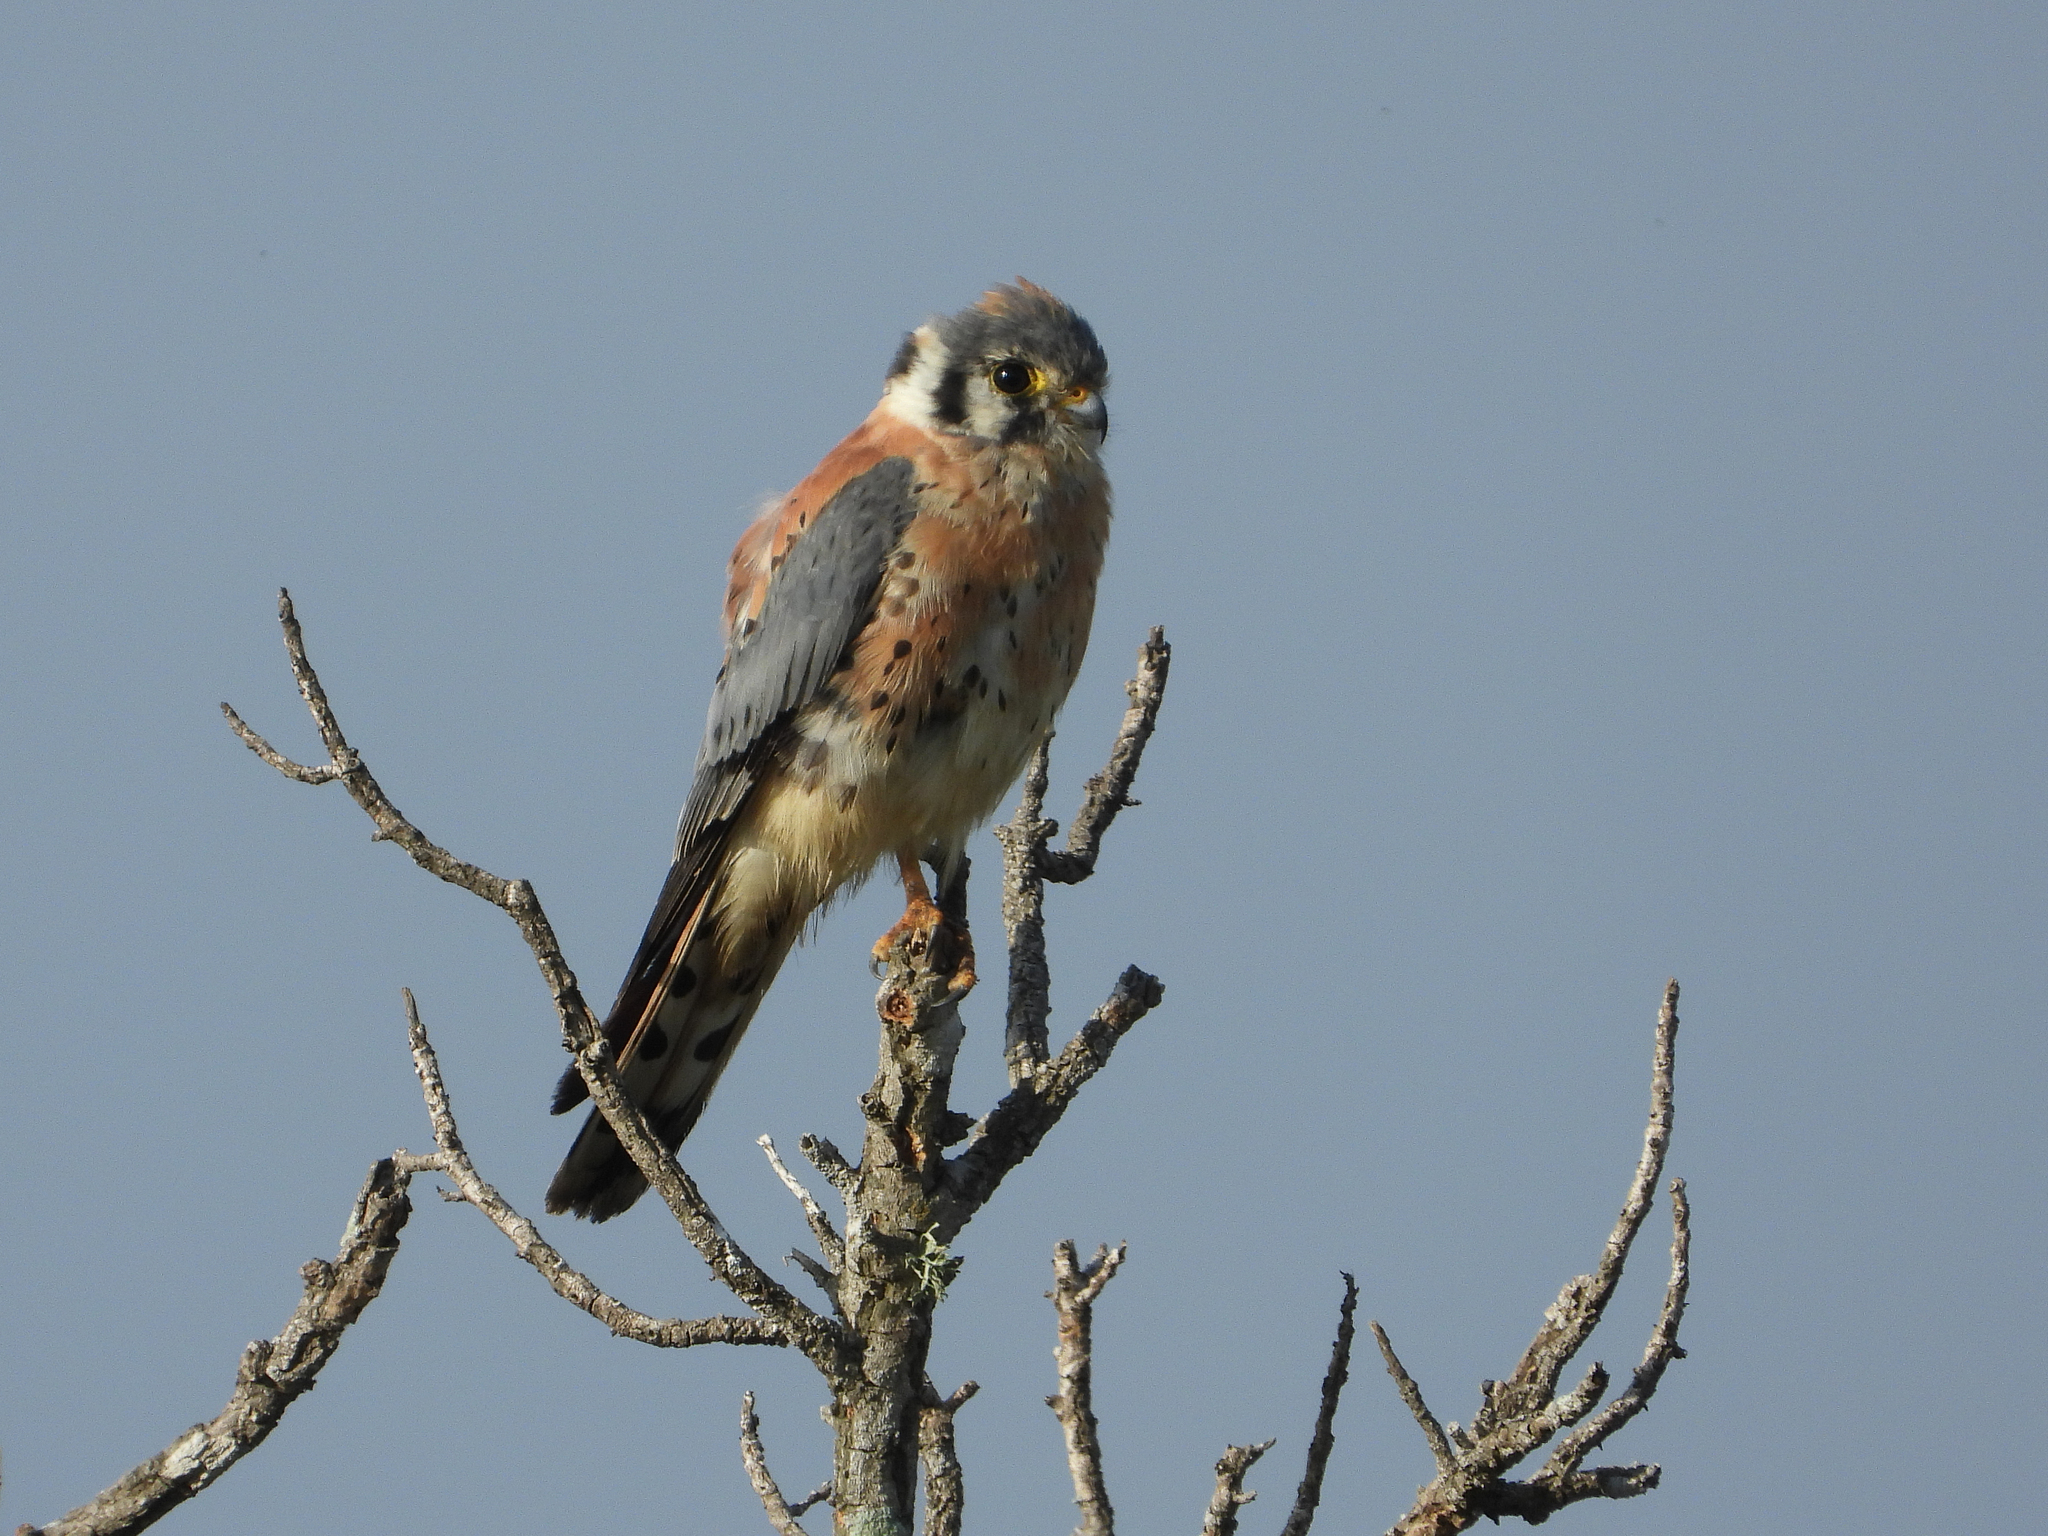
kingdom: Animalia
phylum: Chordata
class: Aves
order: Falconiformes
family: Falconidae
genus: Falco
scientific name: Falco sparverius
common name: American kestrel
